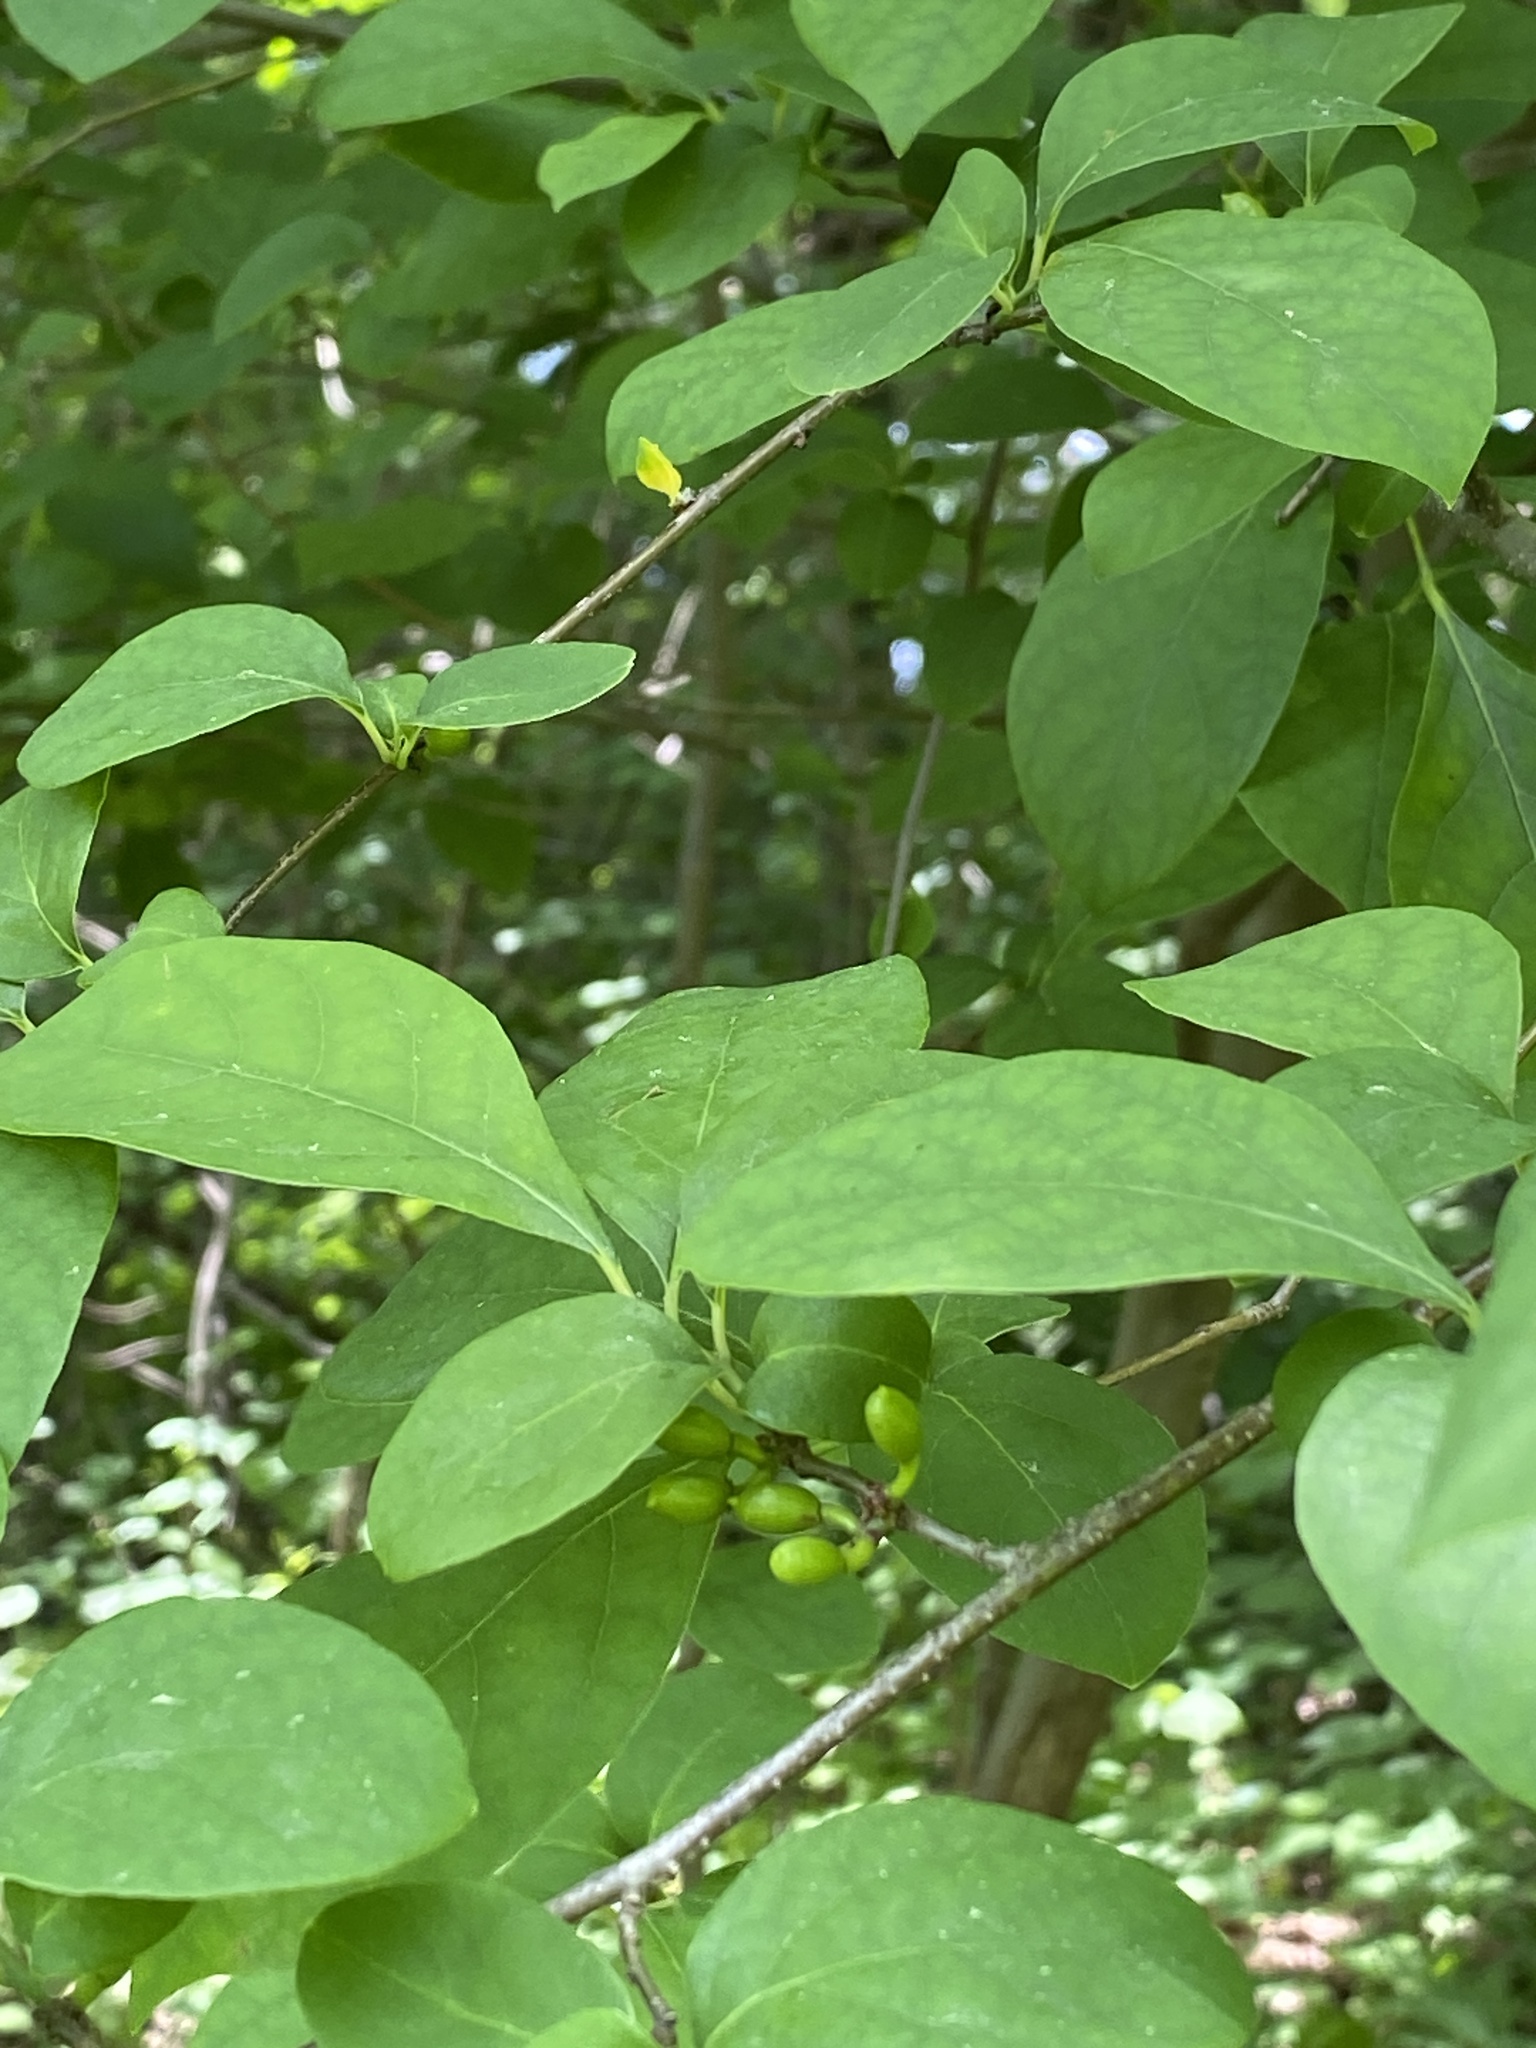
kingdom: Plantae
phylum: Tracheophyta
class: Magnoliopsida
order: Laurales
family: Lauraceae
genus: Lindera
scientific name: Lindera benzoin
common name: Spicebush
